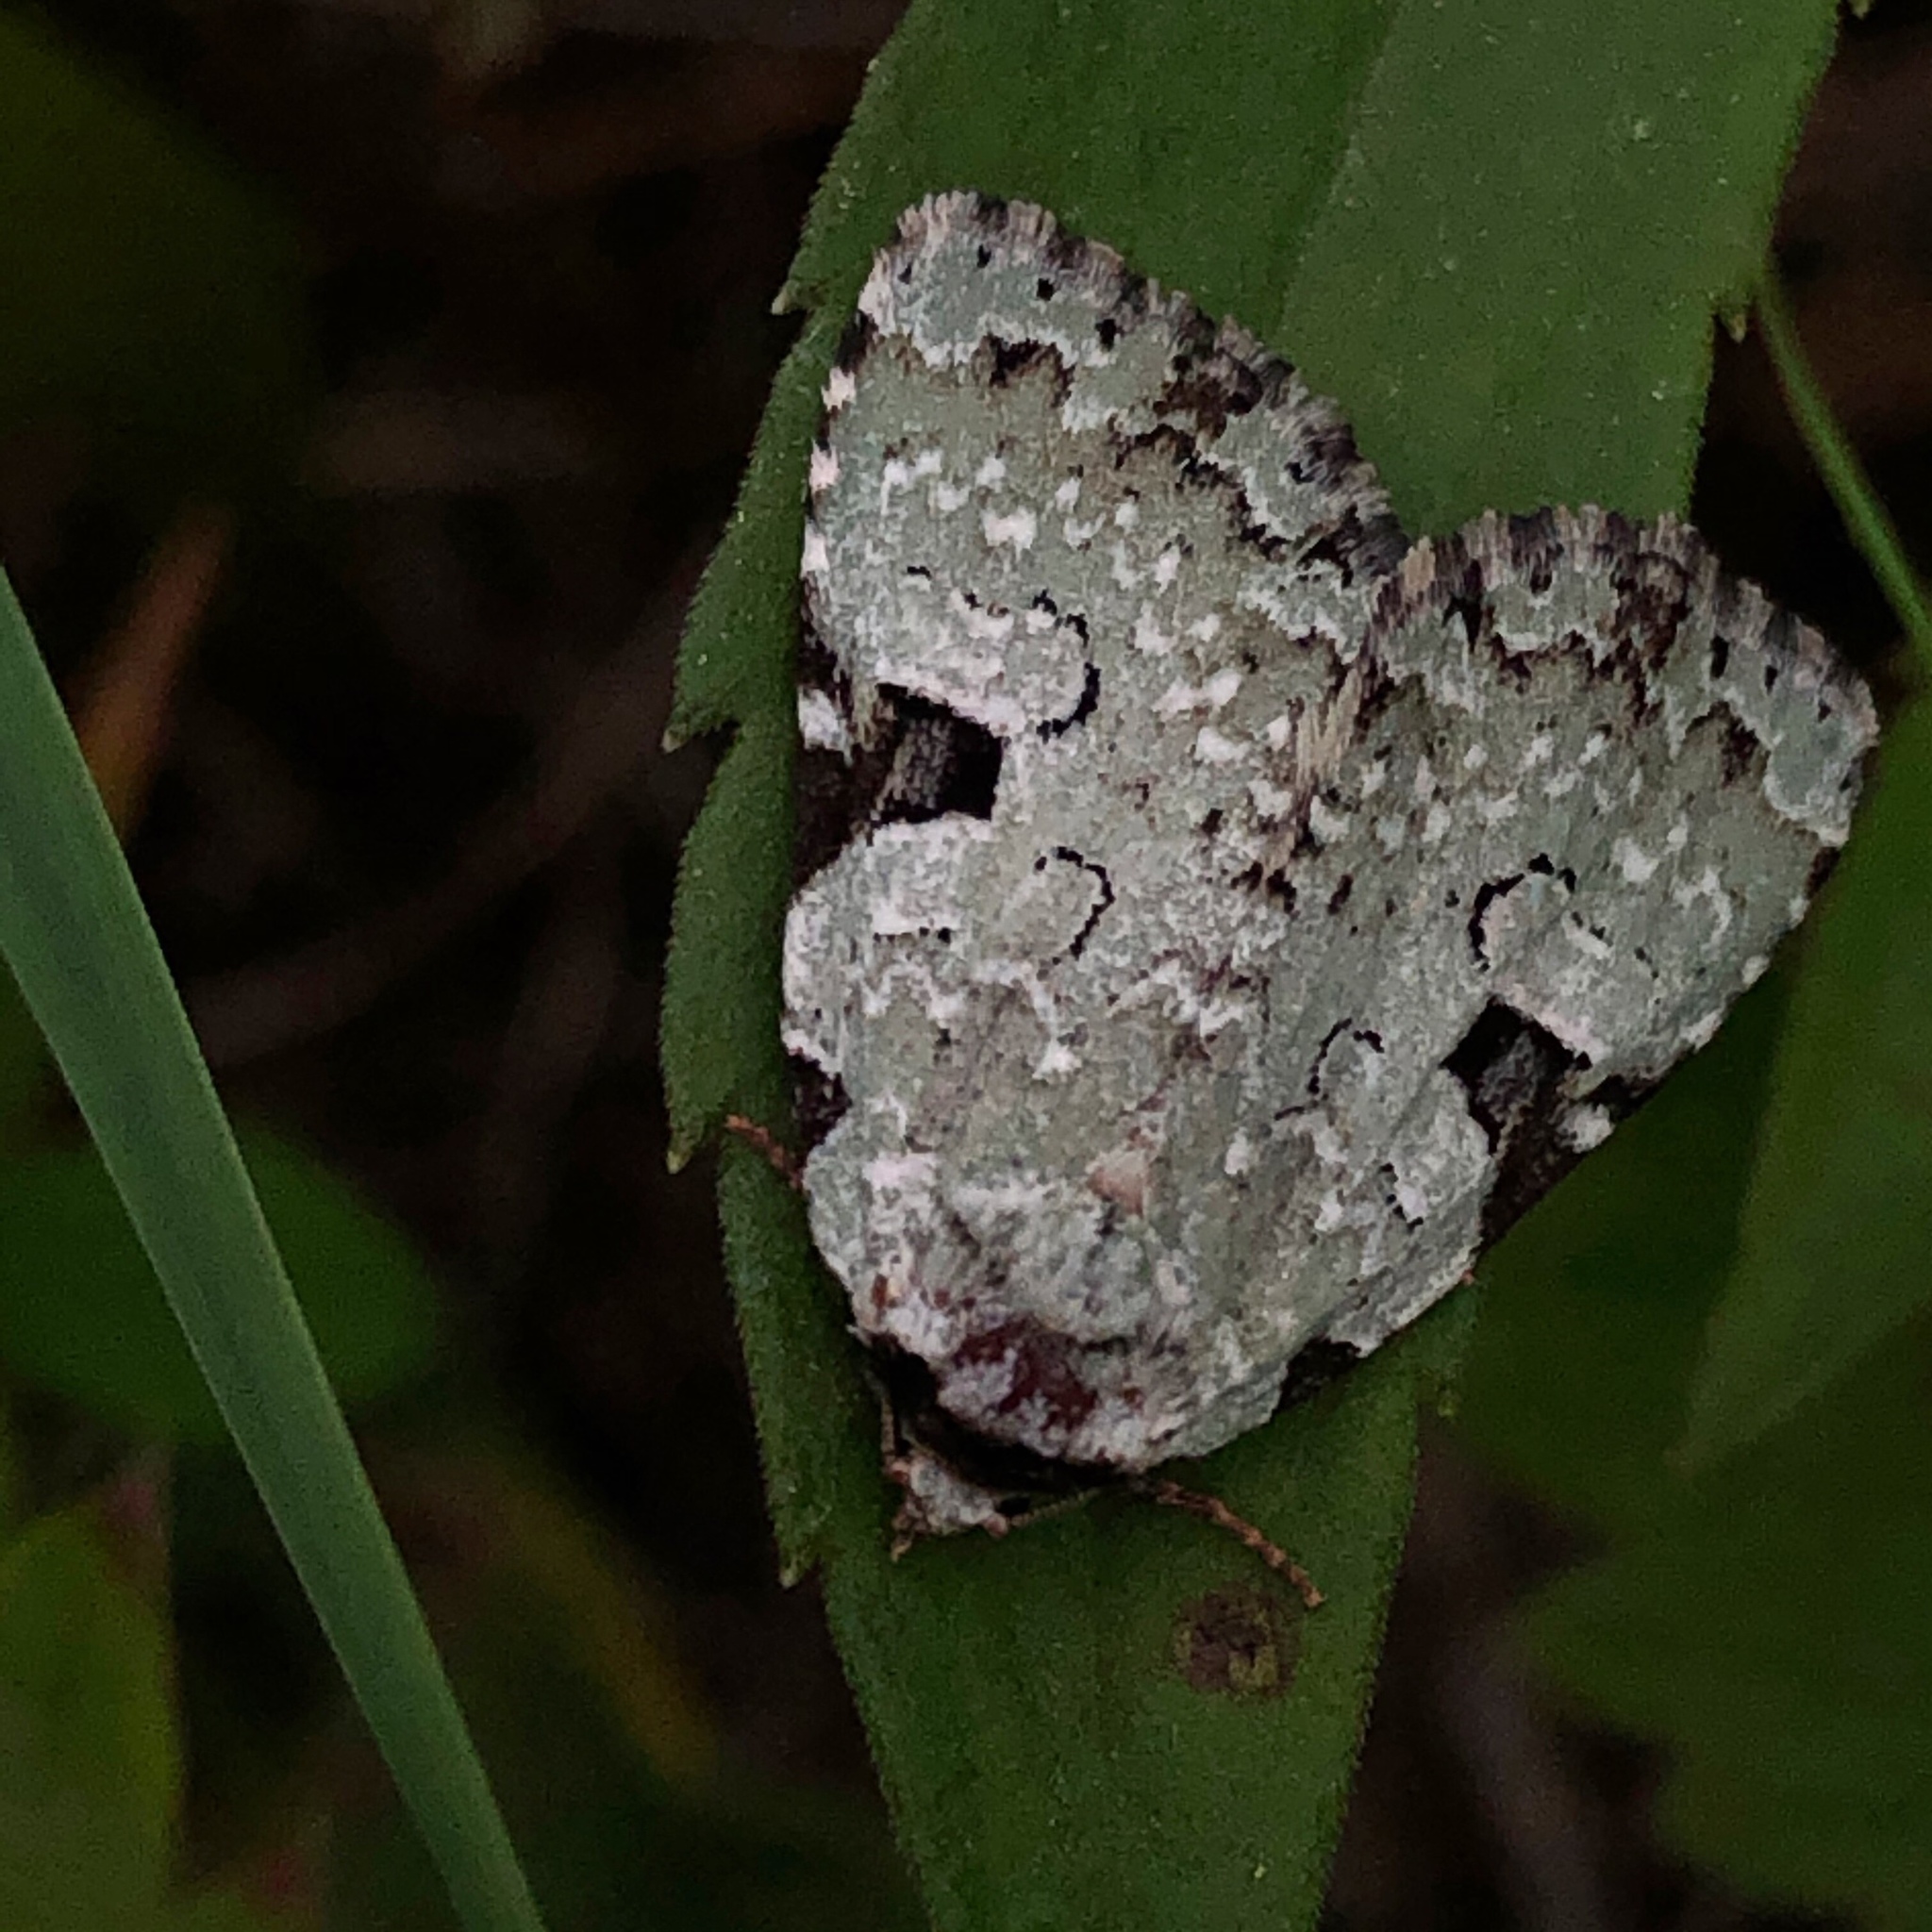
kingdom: Animalia
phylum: Arthropoda
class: Insecta
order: Lepidoptera
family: Noctuidae
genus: Leuconycta
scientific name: Leuconycta diphteroides
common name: Green leuconycta moth
